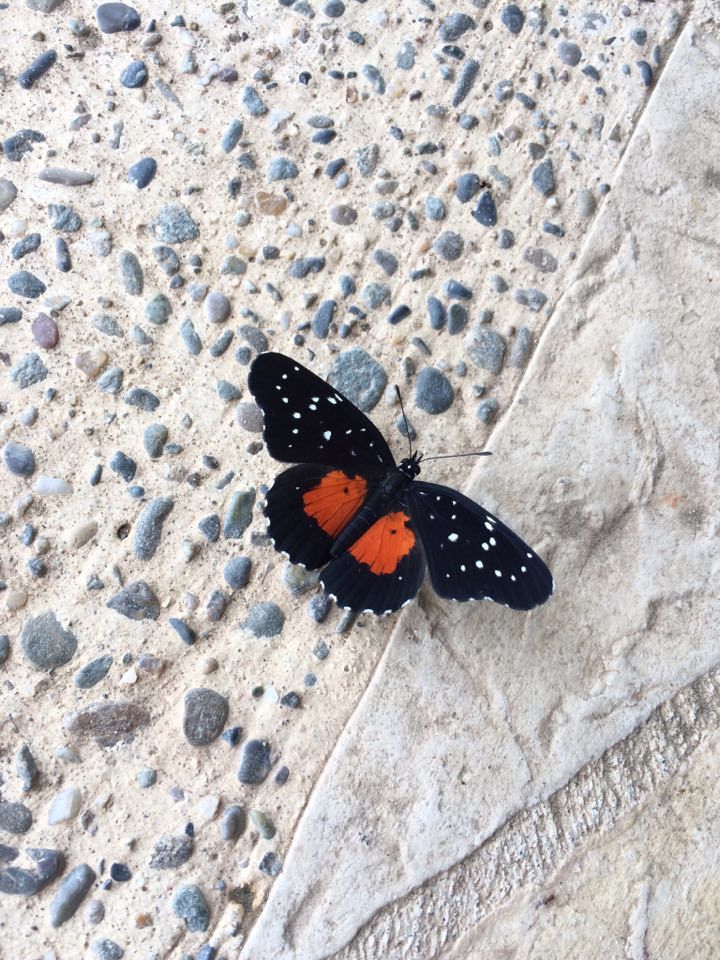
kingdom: Animalia
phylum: Arthropoda
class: Insecta
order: Lepidoptera
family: Nymphalidae
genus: Chlosyne
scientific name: Chlosyne janais
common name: Crimson patch
